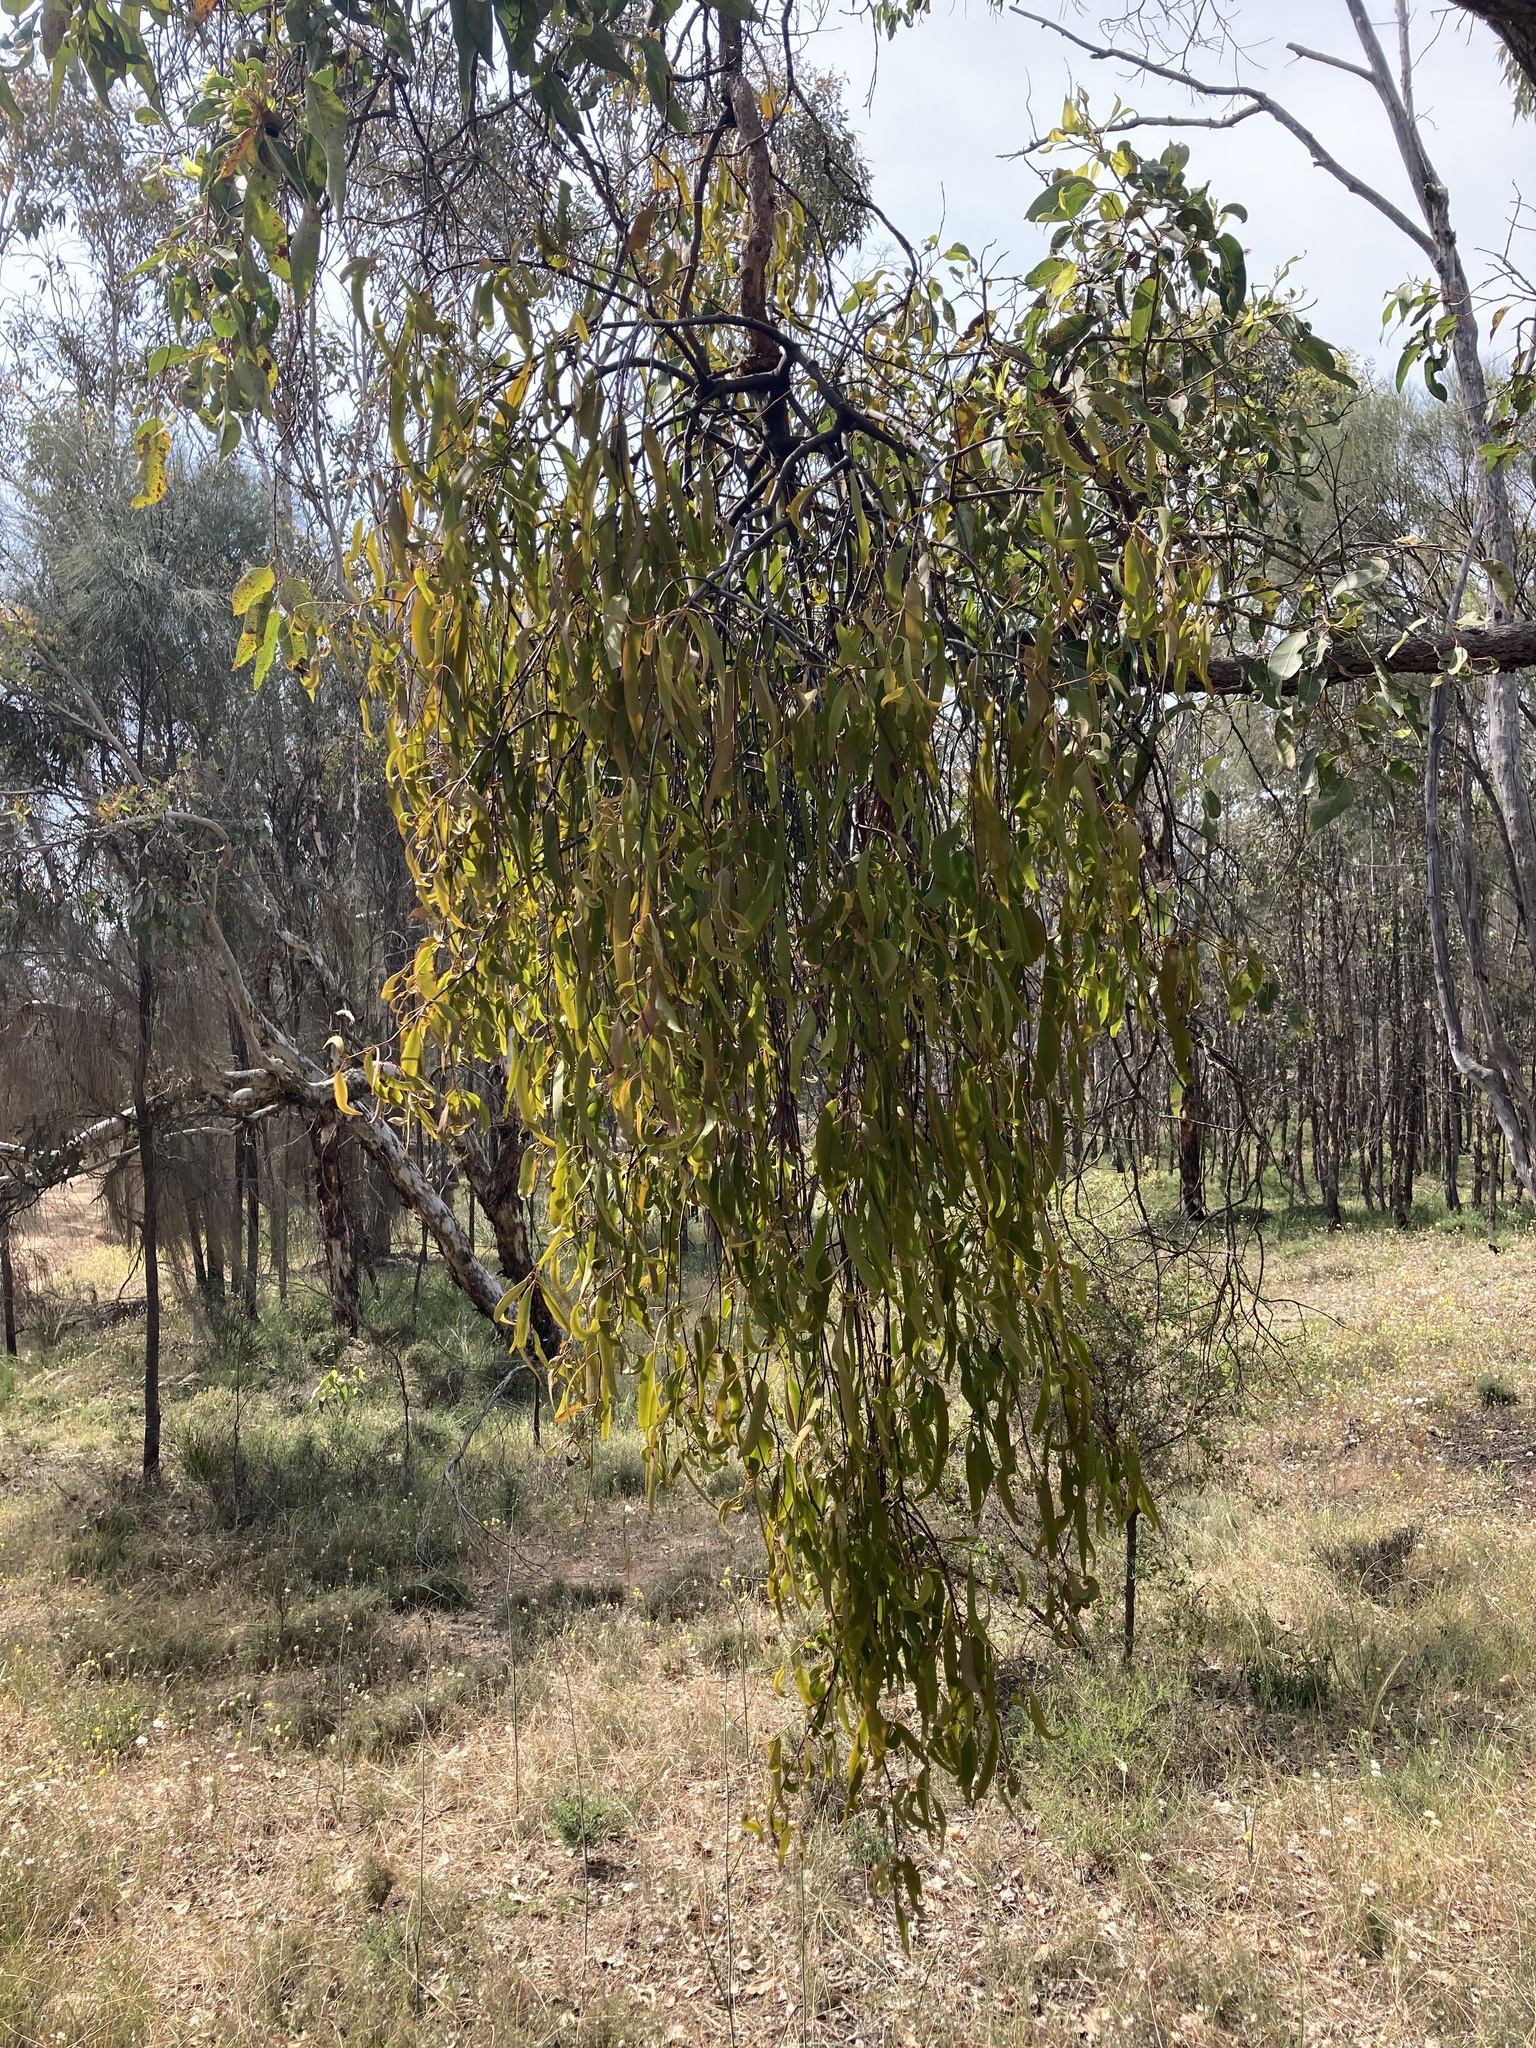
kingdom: Plantae
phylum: Tracheophyta
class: Magnoliopsida
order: Santalales
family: Loranthaceae
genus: Amyema
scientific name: Amyema miquelii
